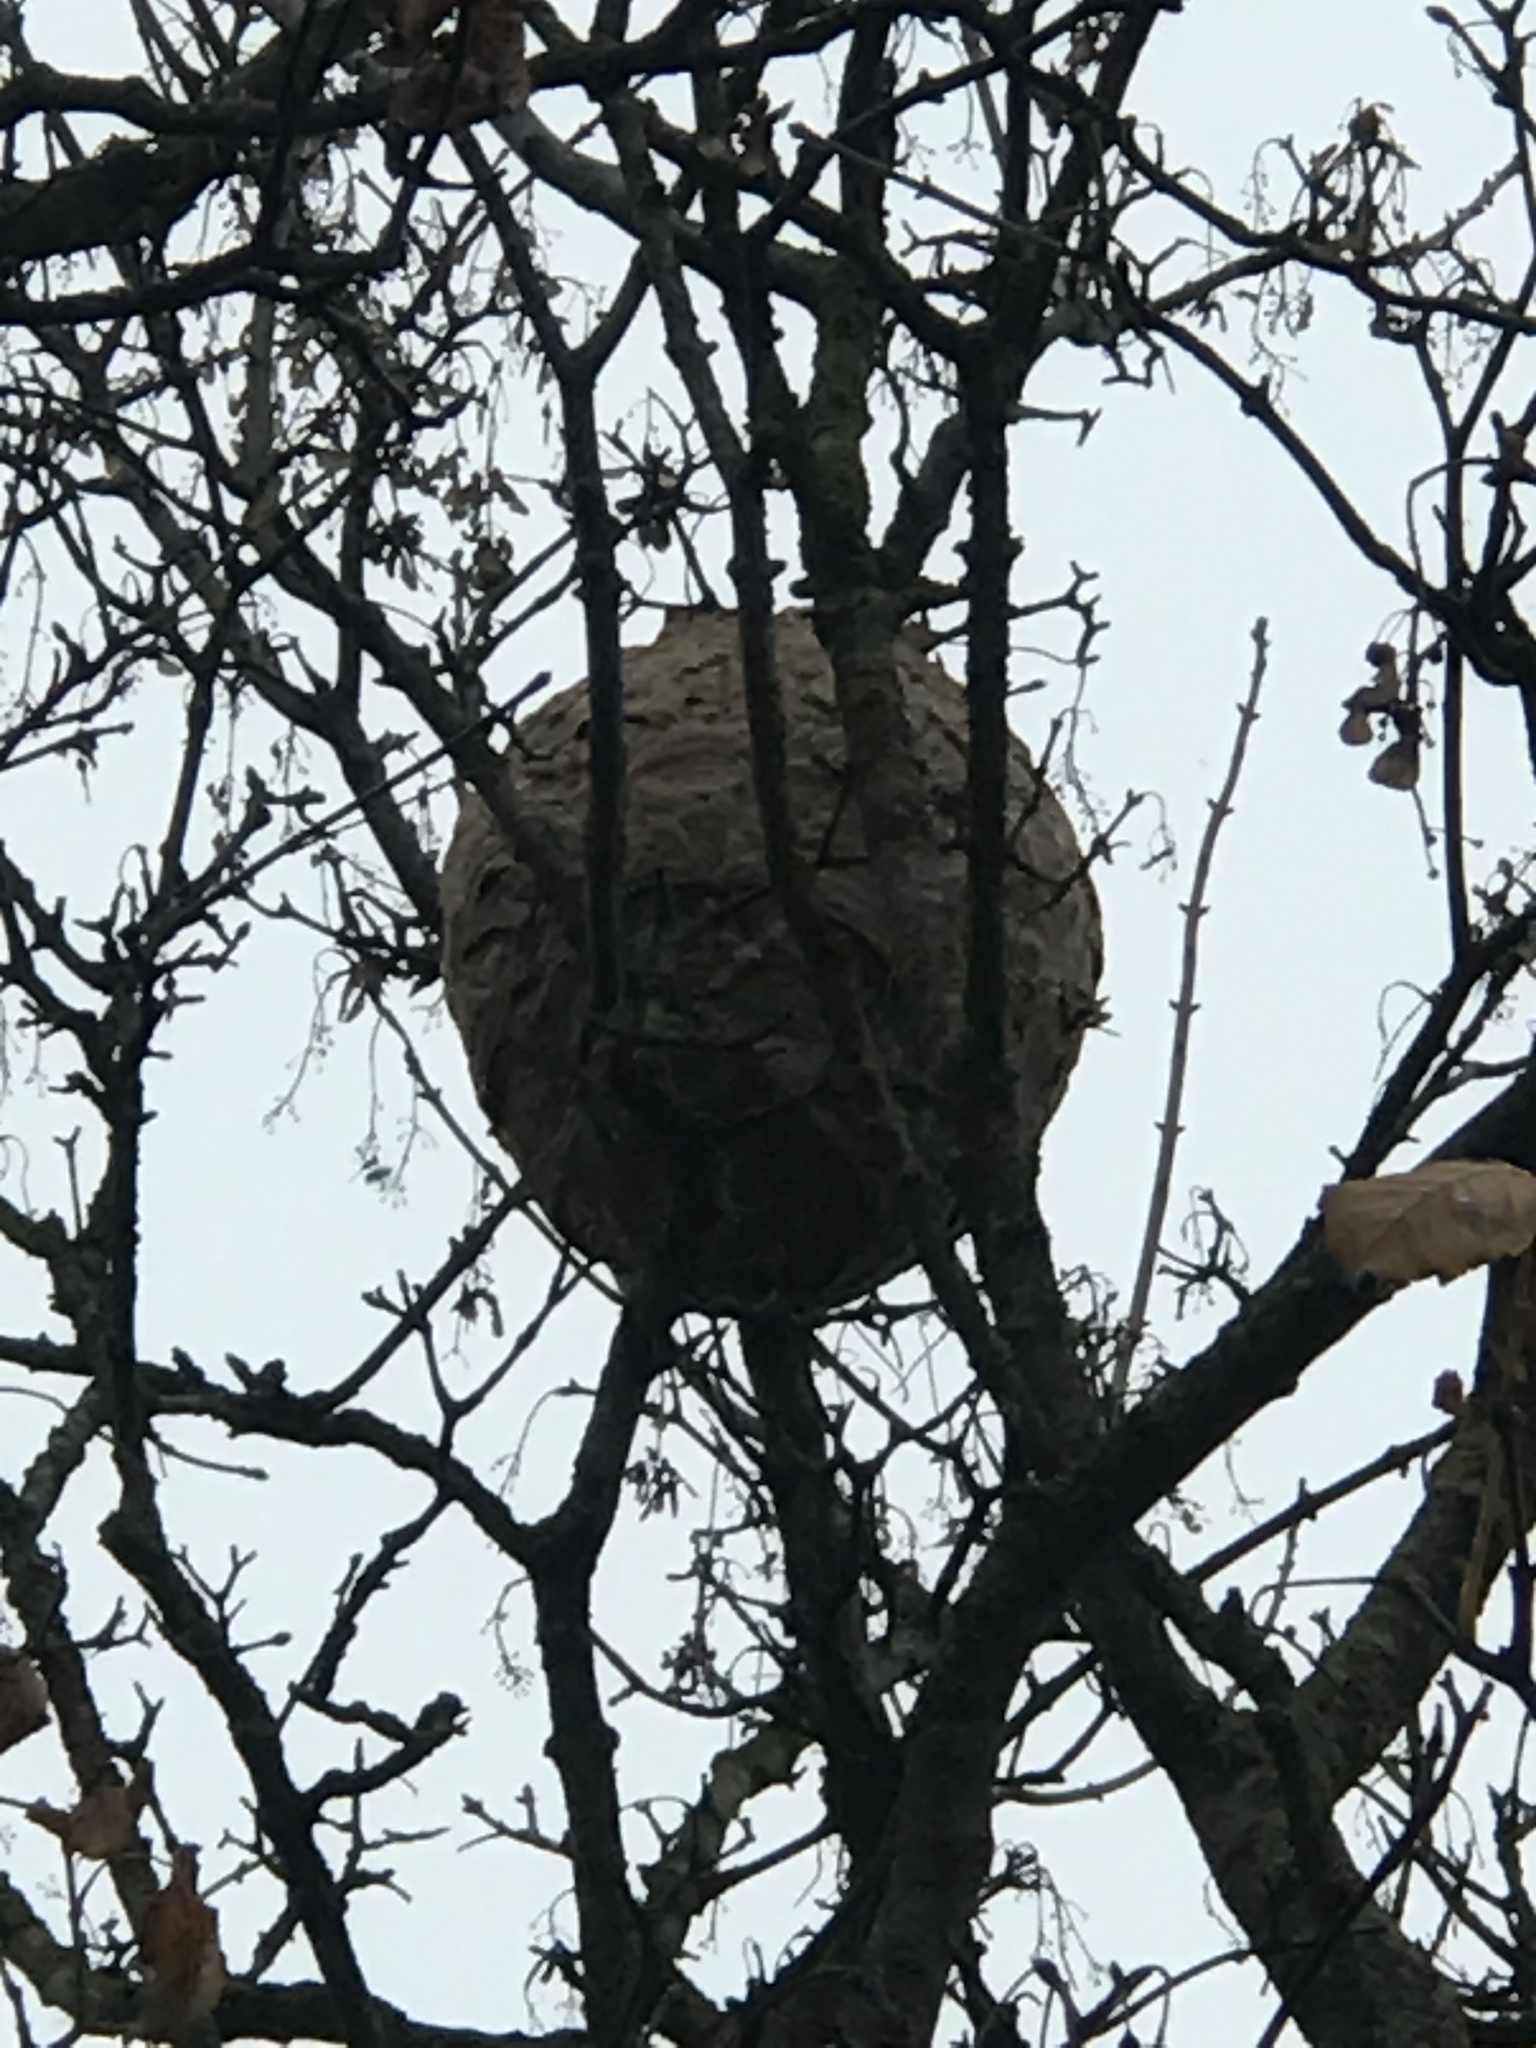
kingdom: Animalia
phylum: Arthropoda
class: Insecta
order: Hymenoptera
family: Vespidae
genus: Vespa
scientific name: Vespa velutina
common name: Asian hornet
